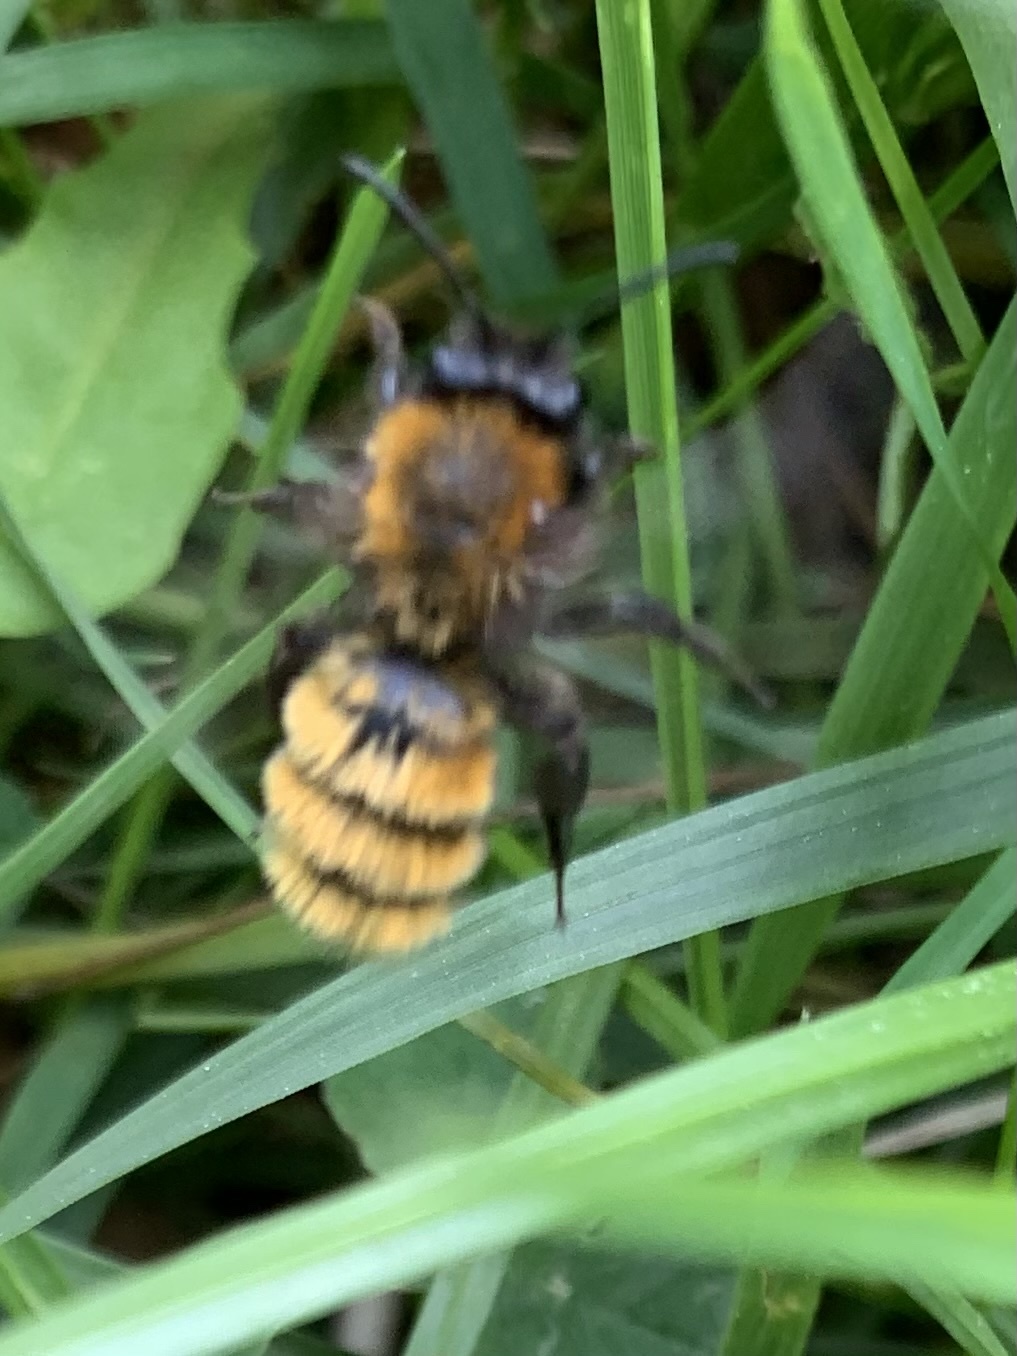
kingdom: Animalia
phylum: Arthropoda
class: Insecta
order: Hymenoptera
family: Andrenidae
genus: Andrena
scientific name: Andrena fulva
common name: Tawny mining bee
